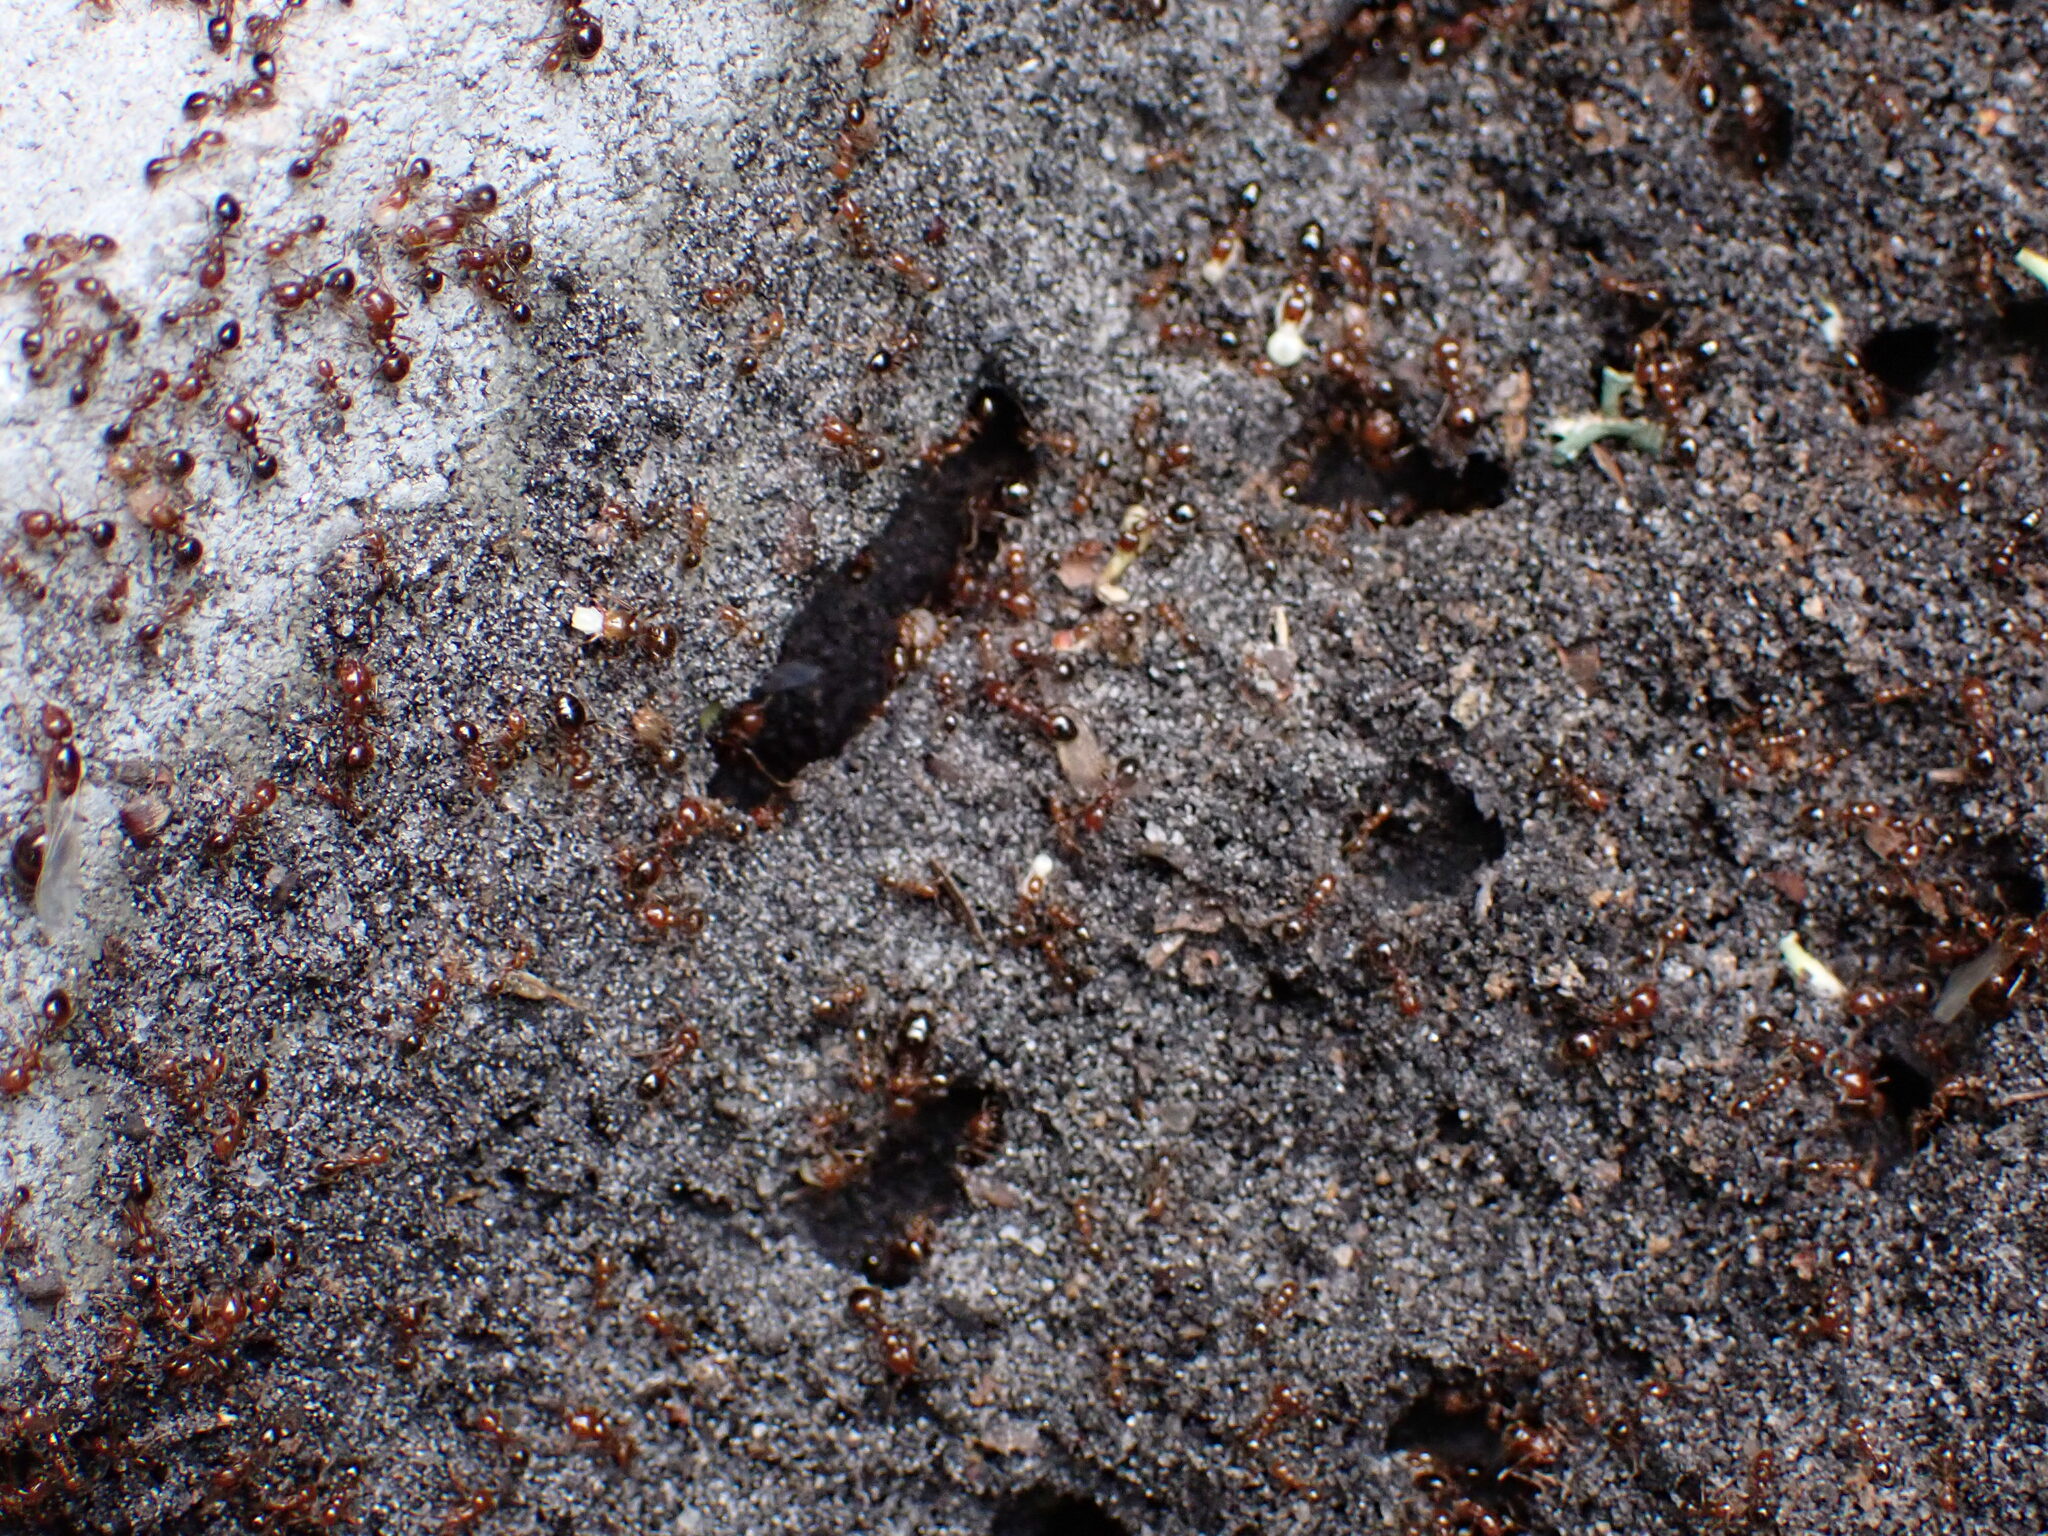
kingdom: Animalia
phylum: Arthropoda
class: Insecta
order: Hymenoptera
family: Formicidae
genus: Solenopsis
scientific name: Solenopsis invicta
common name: Red imported fire ant
